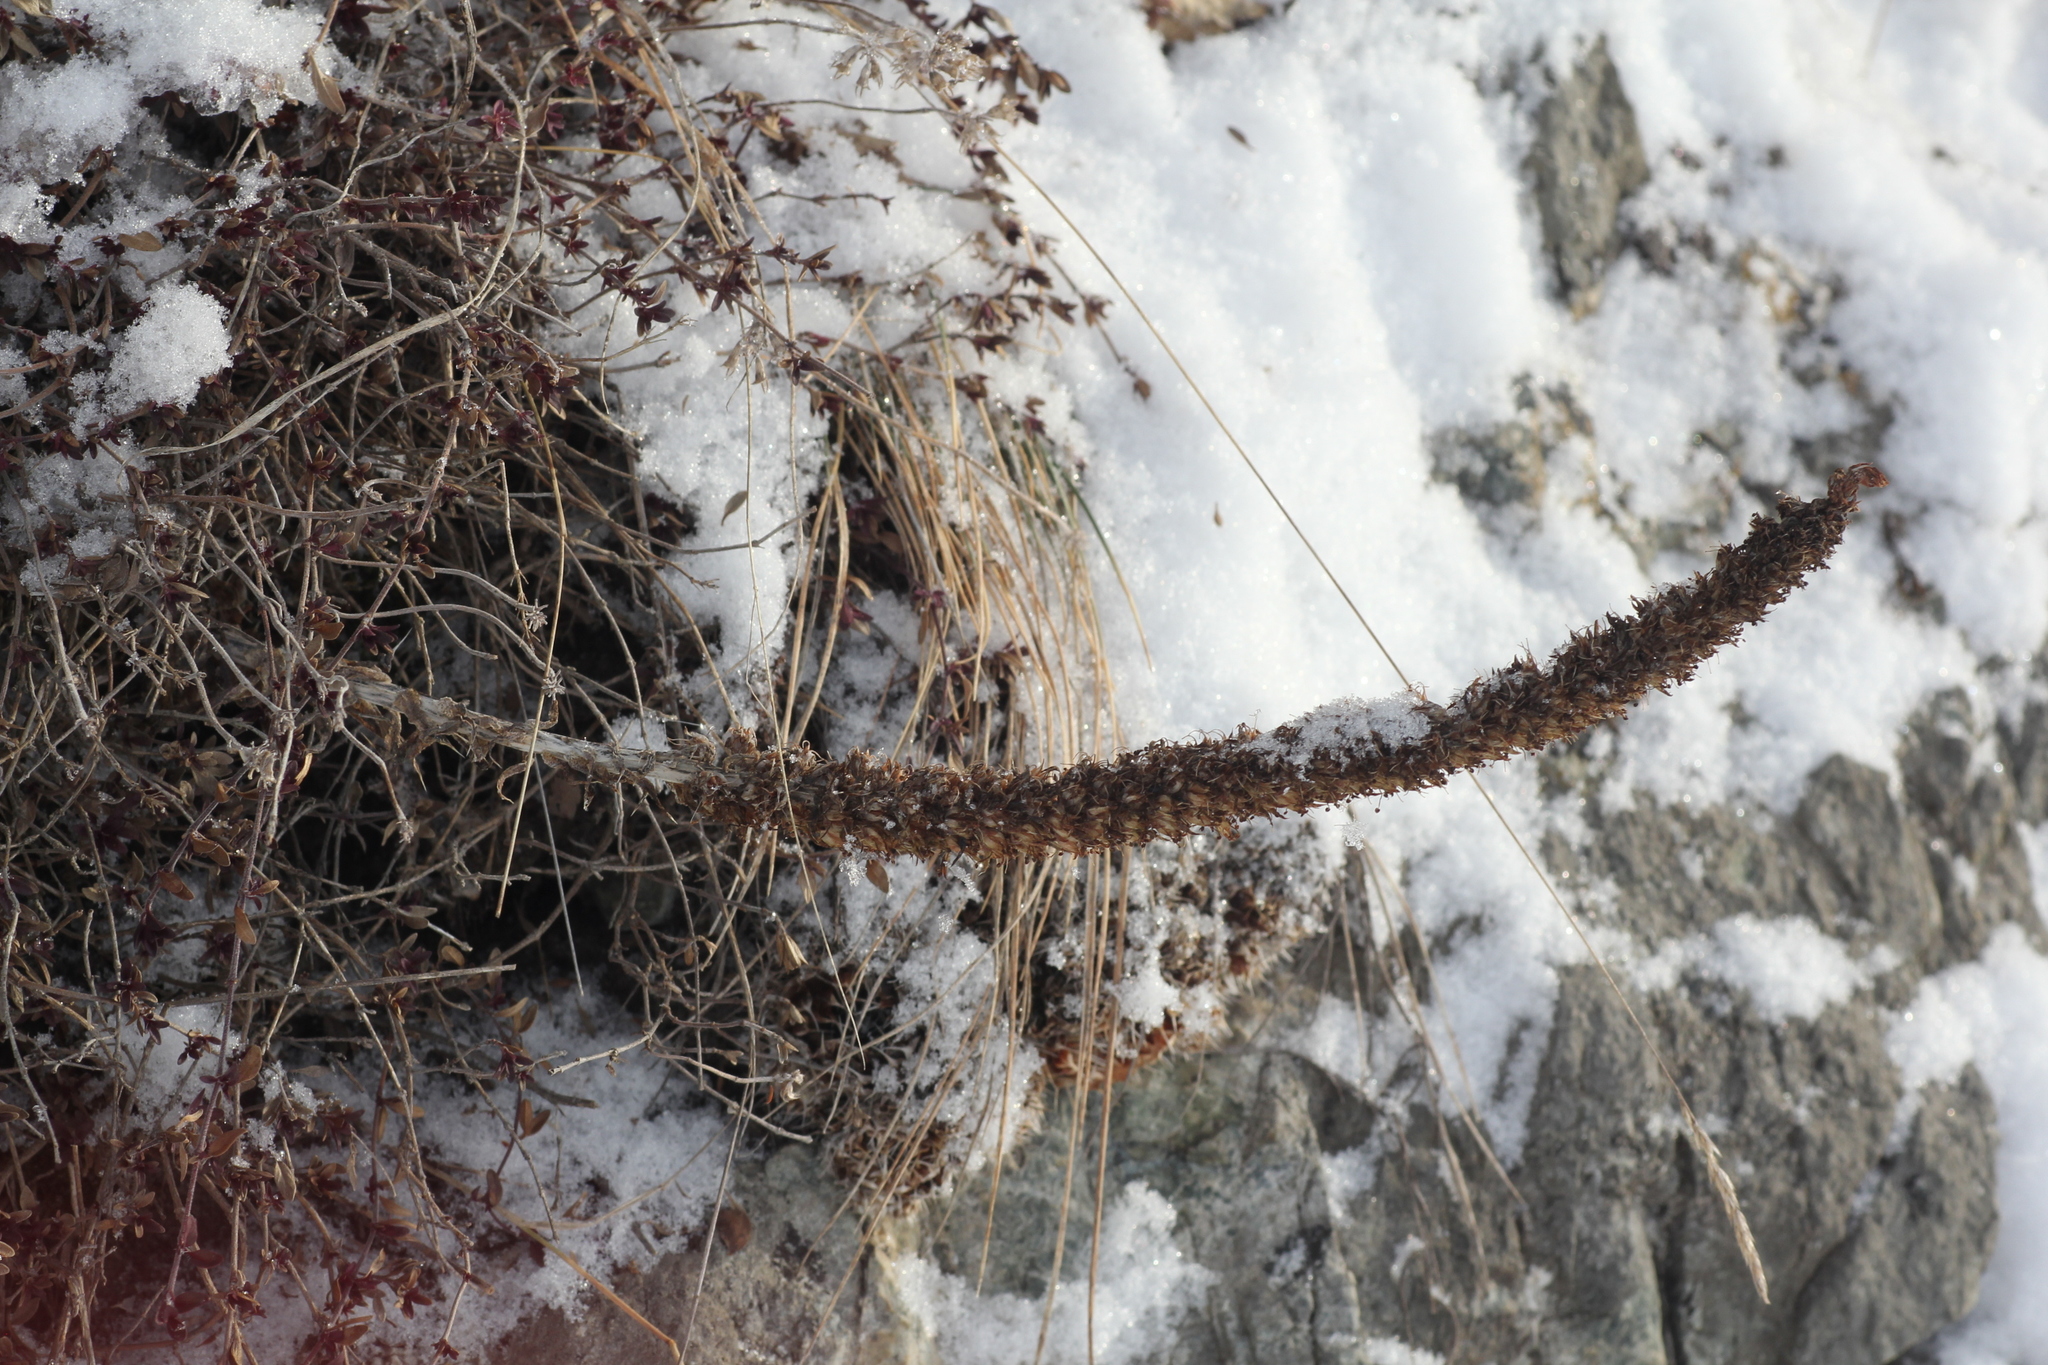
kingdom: Plantae
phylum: Tracheophyta
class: Magnoliopsida
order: Saxifragales
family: Crassulaceae
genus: Orostachys
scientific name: Orostachys spinosa
